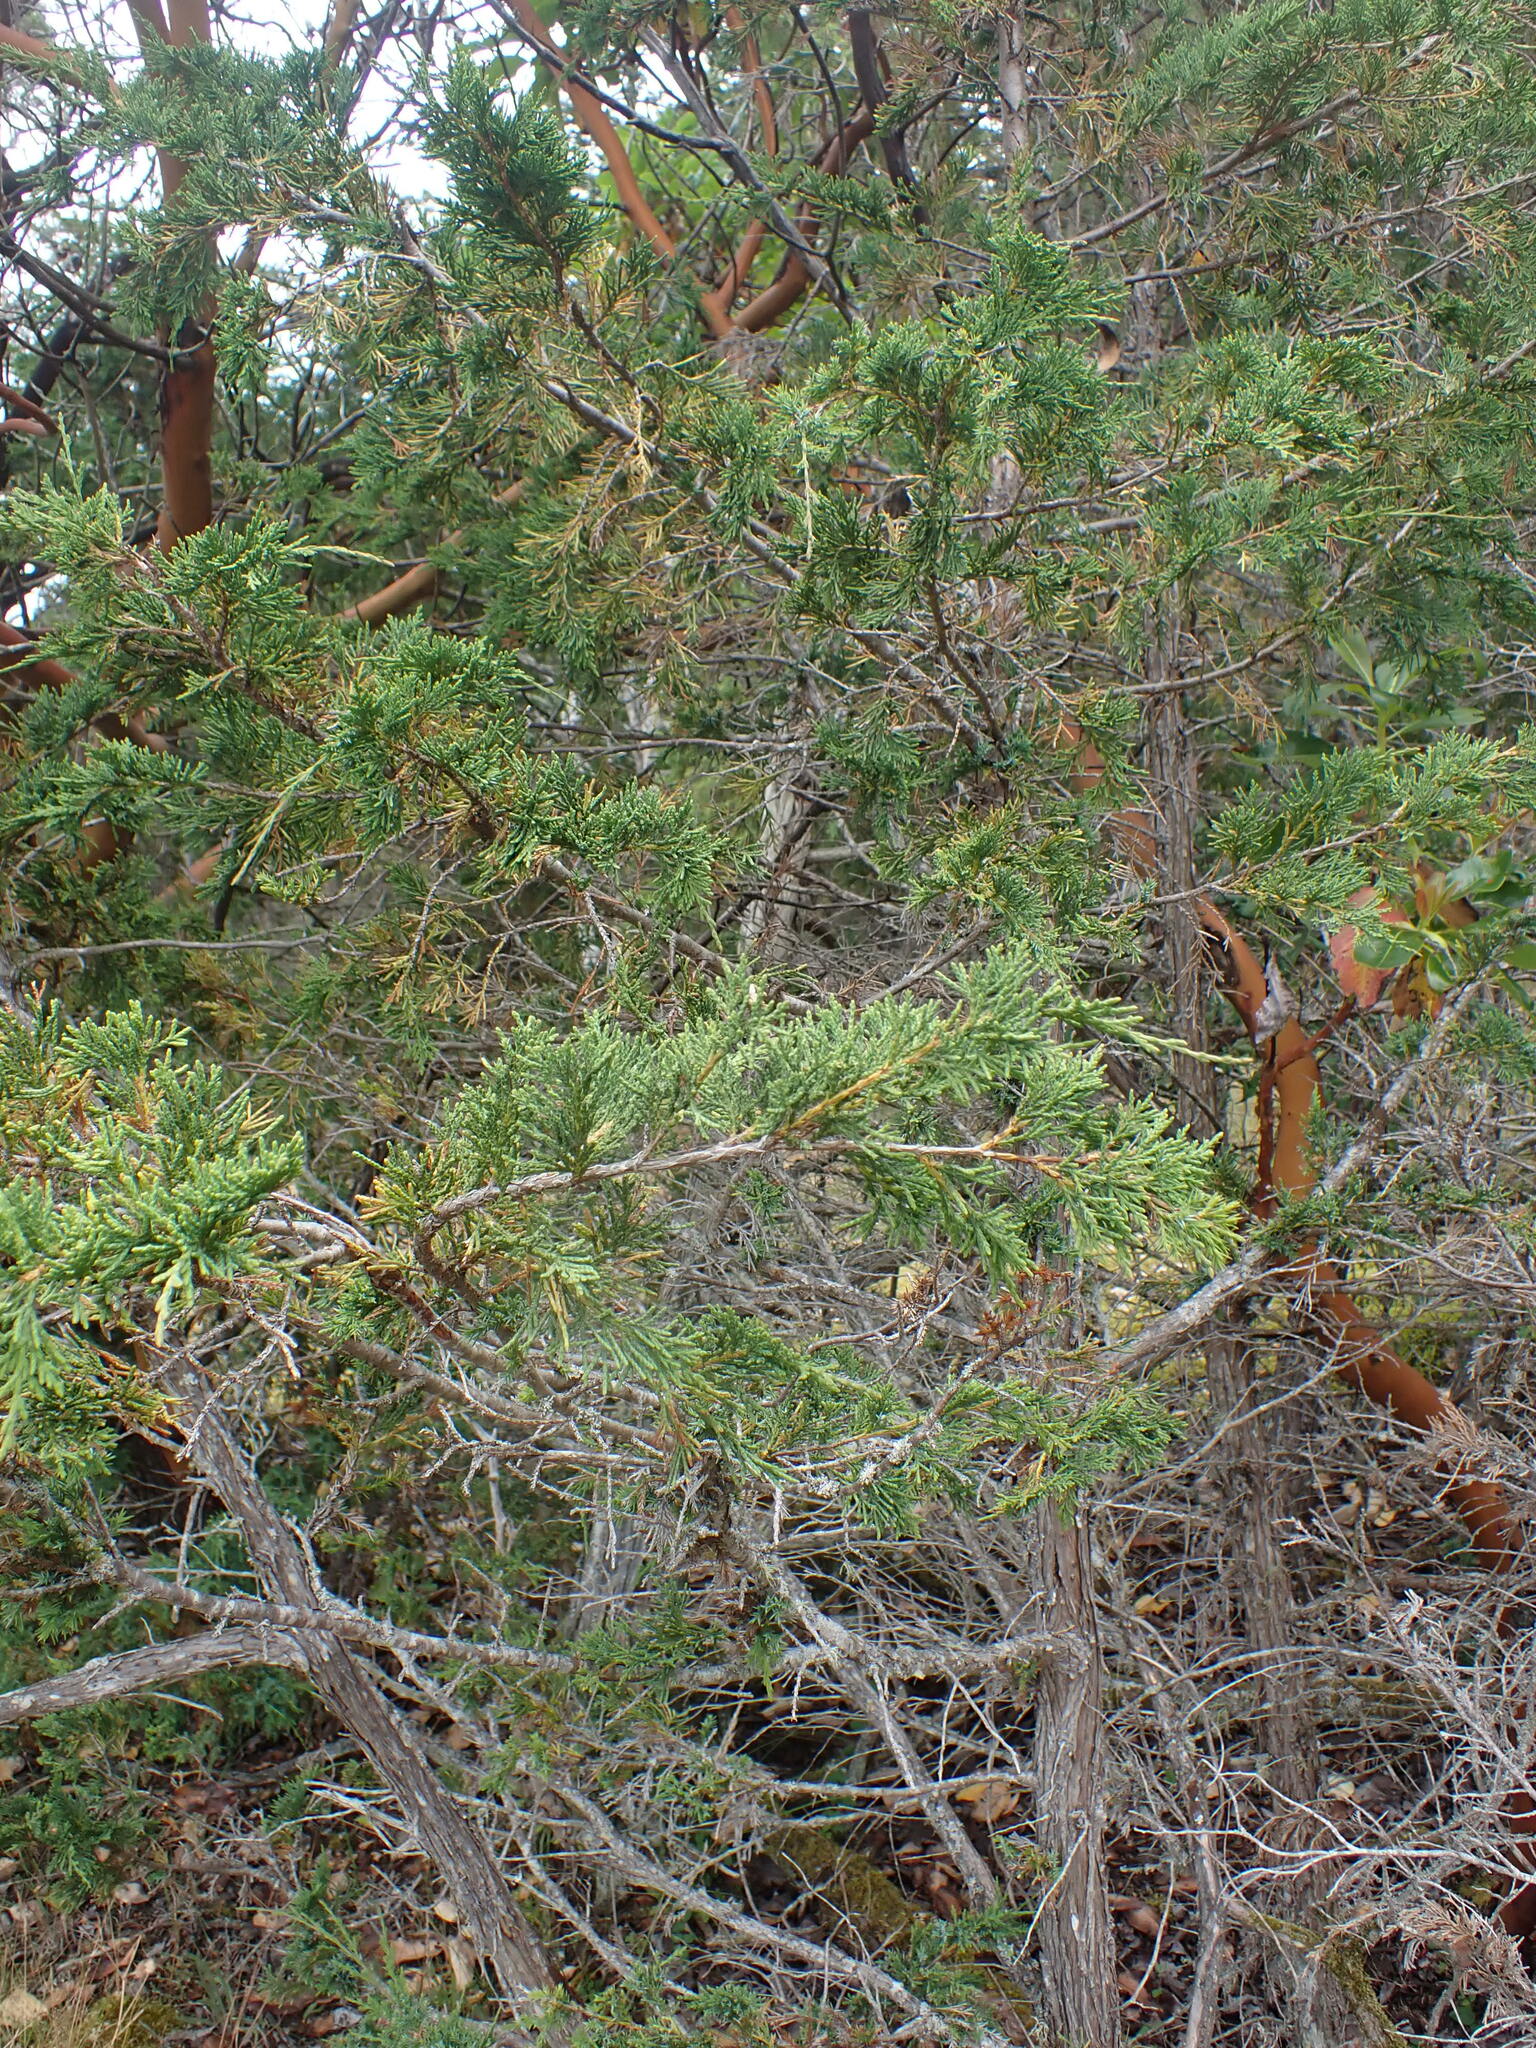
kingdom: Plantae
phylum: Tracheophyta
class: Pinopsida
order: Pinales
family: Cupressaceae
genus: Juniperus
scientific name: Juniperus scopulorum
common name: Rocky mountain juniper
